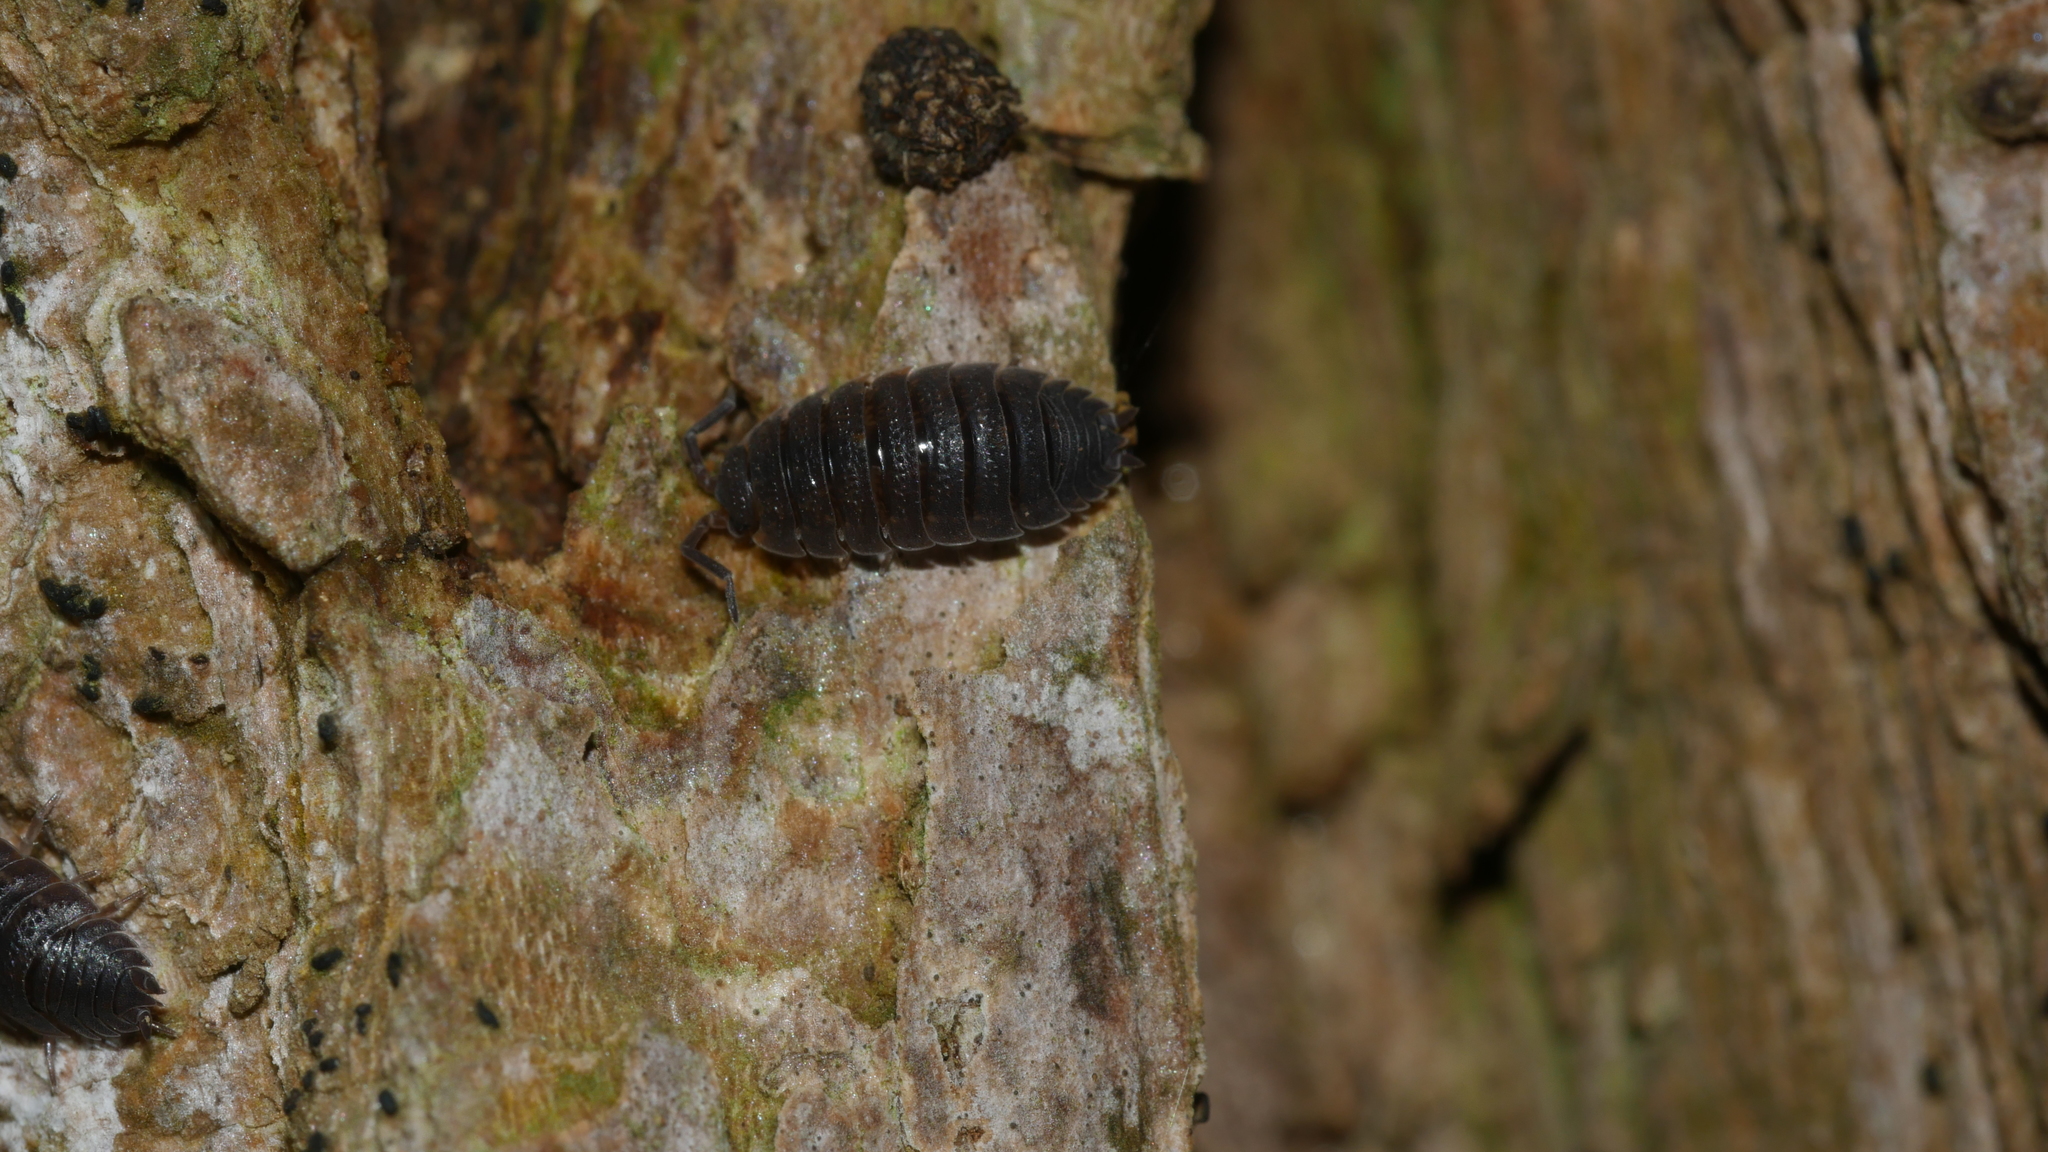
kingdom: Animalia
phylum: Arthropoda
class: Malacostraca
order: Isopoda
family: Porcellionidae
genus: Porcellio
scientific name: Porcellio scaber
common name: Common rough woodlouse
